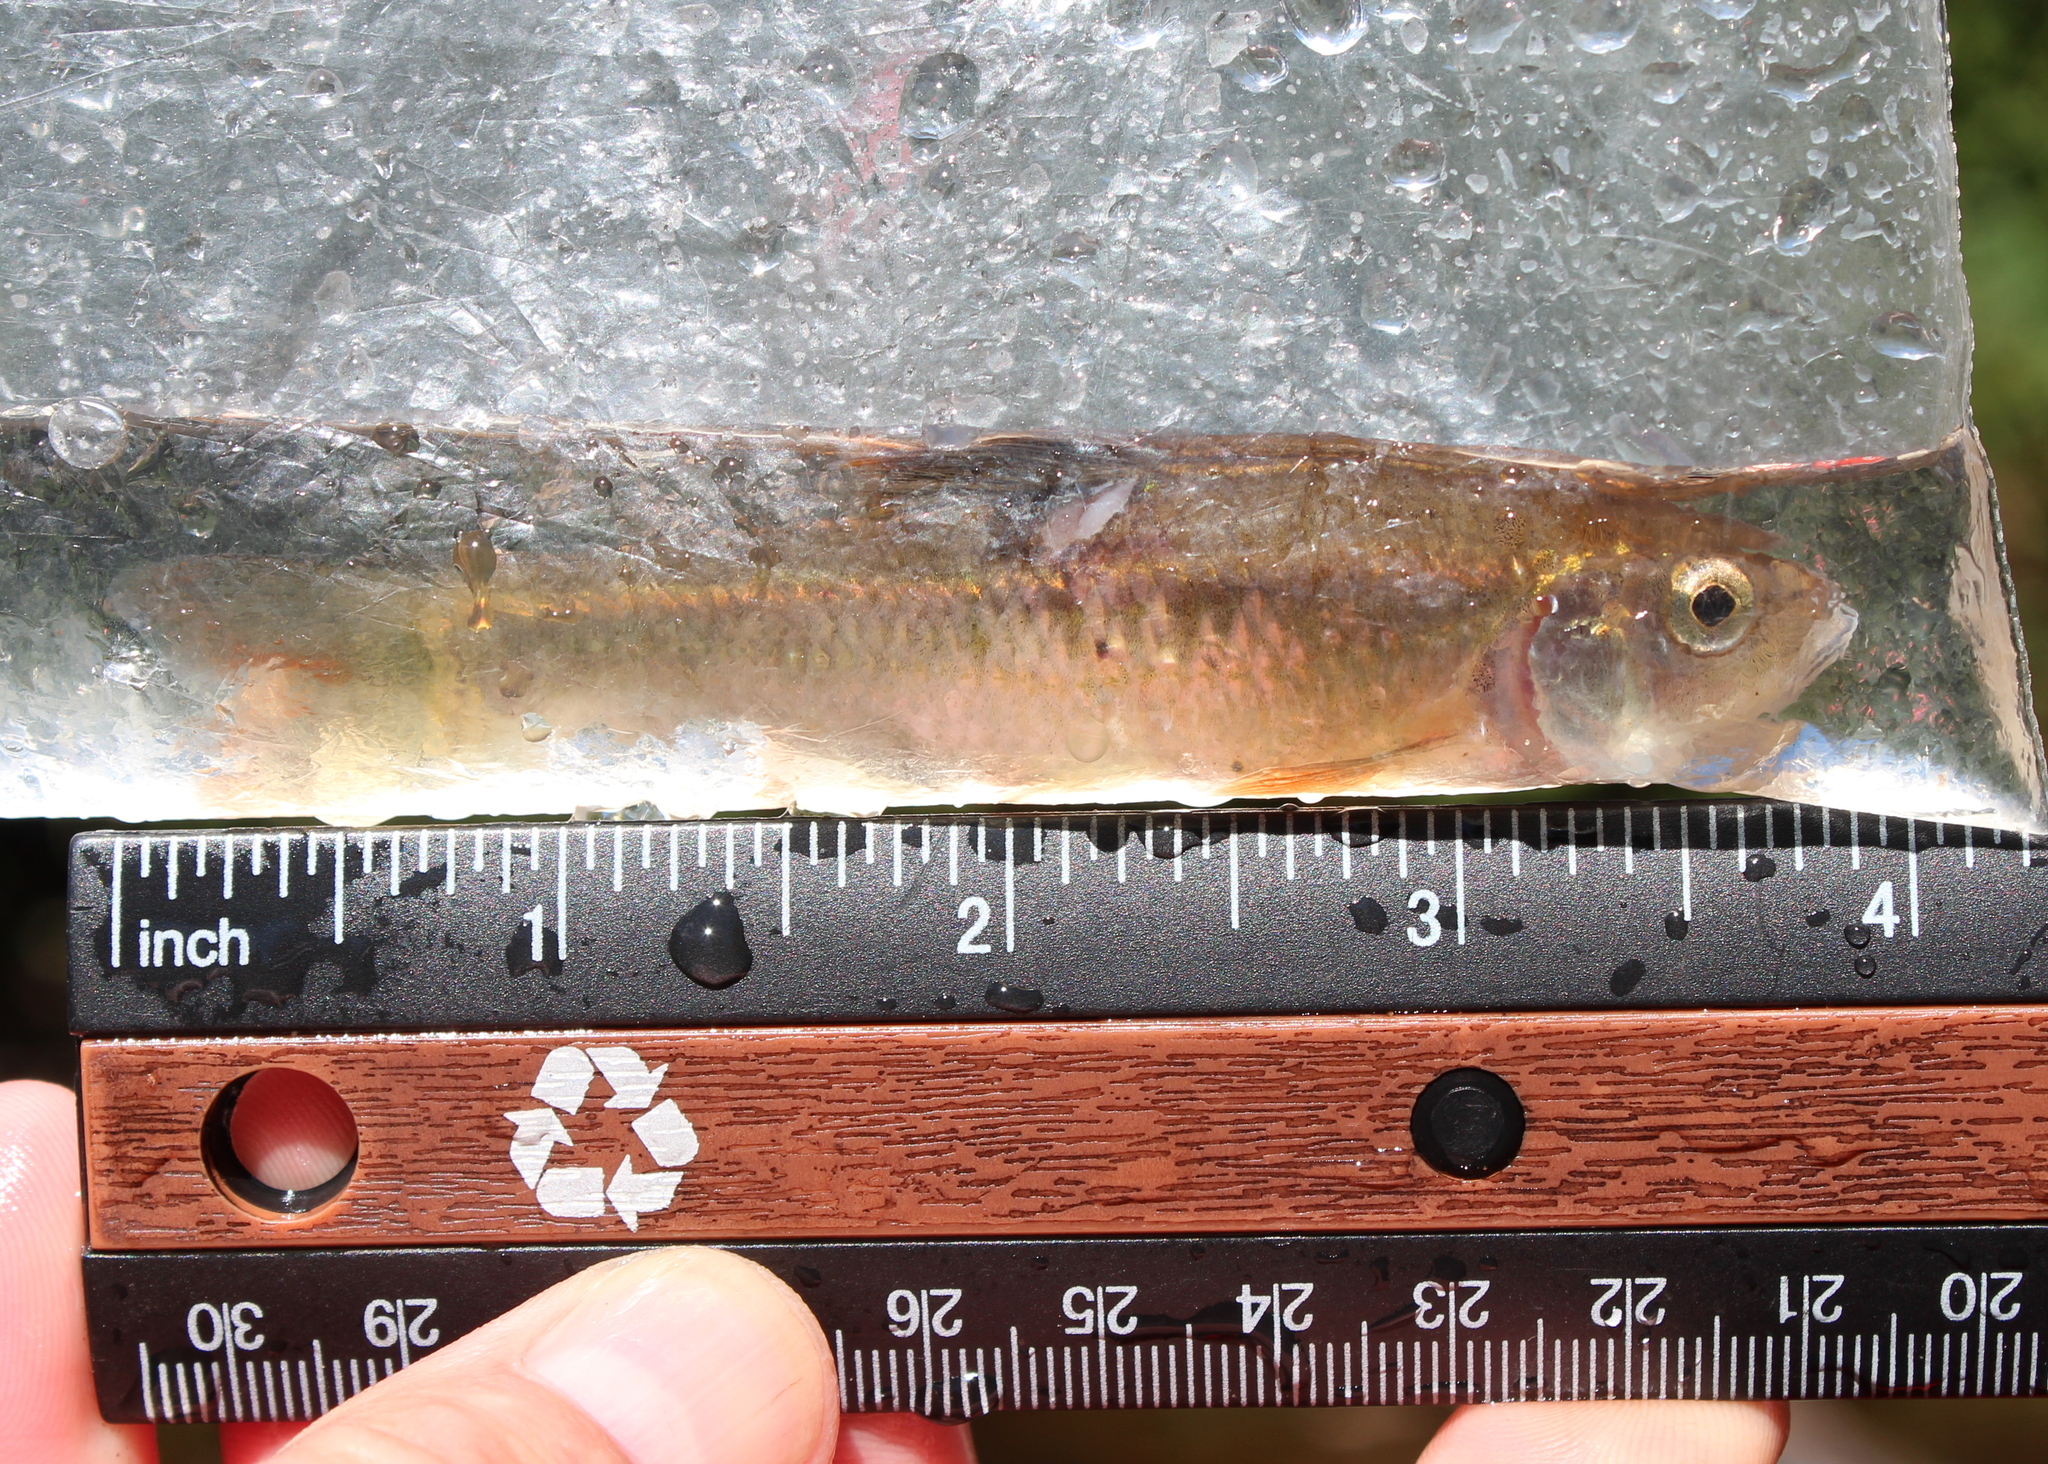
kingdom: Animalia
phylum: Chordata
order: Cypriniformes
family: Cyprinidae
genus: Luxilus
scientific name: Luxilus cornutus
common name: Common shiner
